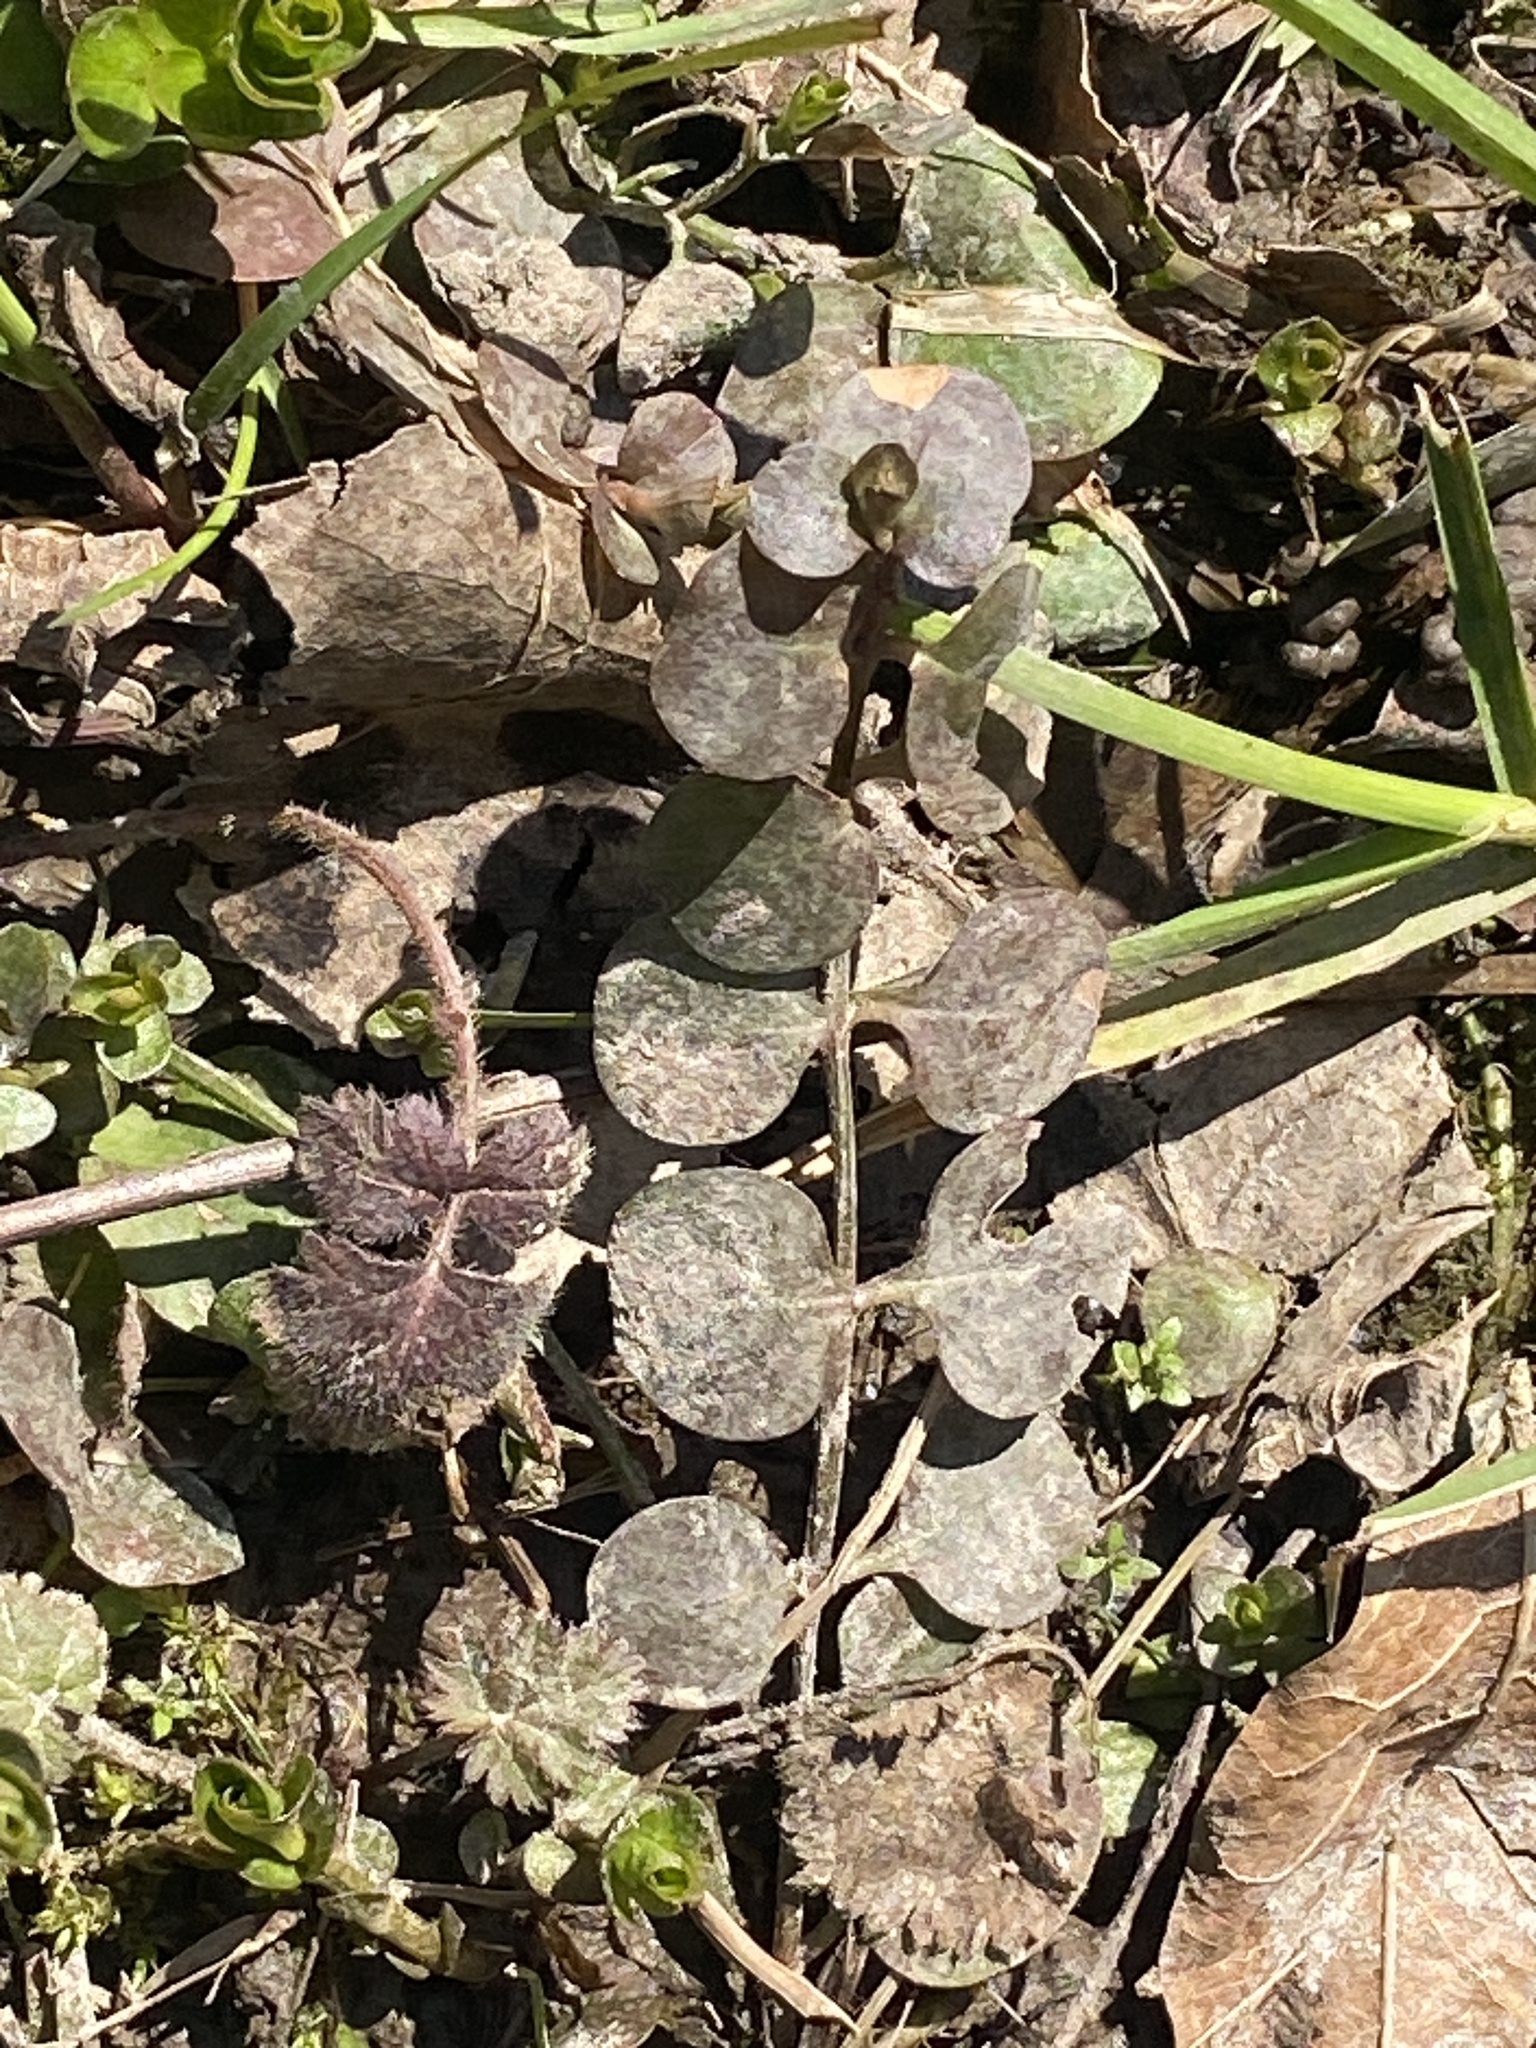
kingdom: Plantae
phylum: Tracheophyta
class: Magnoliopsida
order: Ericales
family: Primulaceae
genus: Lysimachia
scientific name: Lysimachia nummularia
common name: Moneywort
